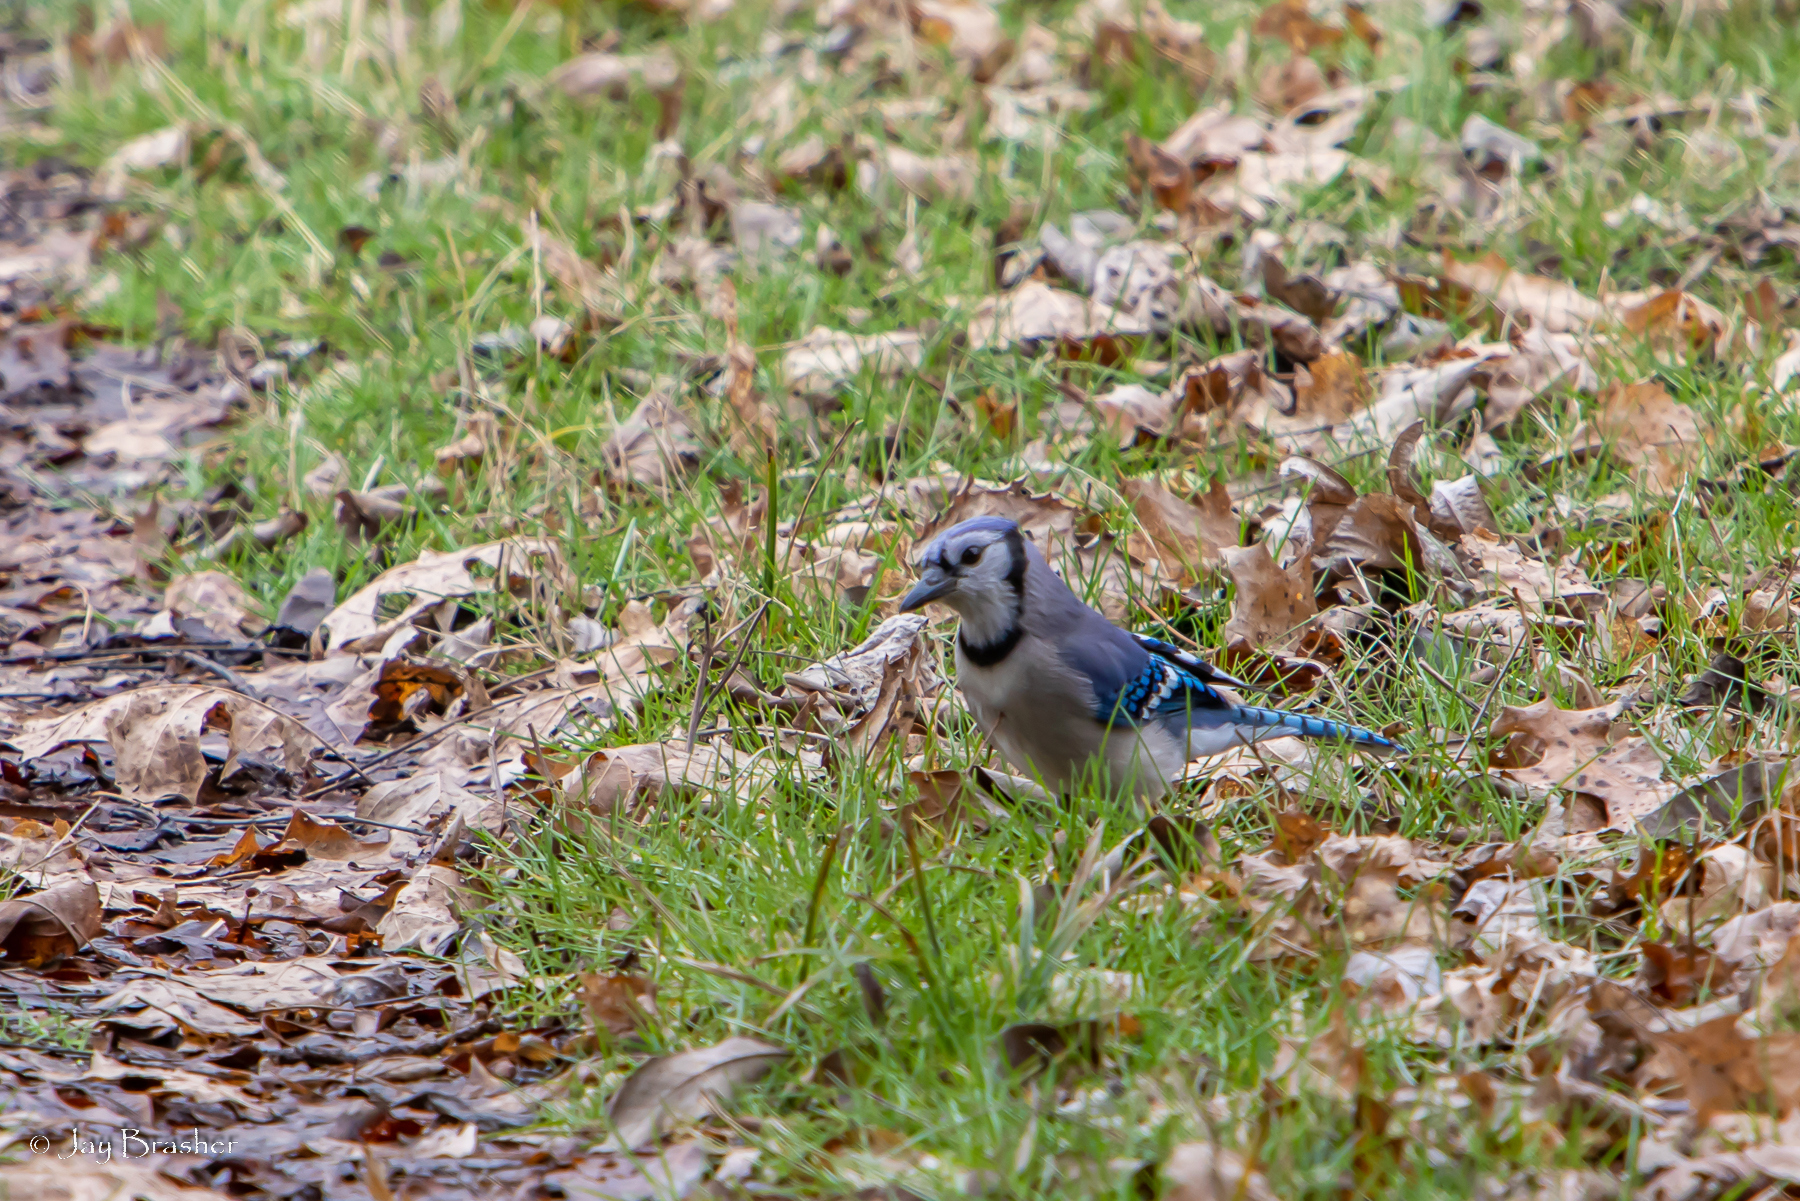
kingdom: Animalia
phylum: Chordata
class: Aves
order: Passeriformes
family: Corvidae
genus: Cyanocitta
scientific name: Cyanocitta cristata
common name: Blue jay
